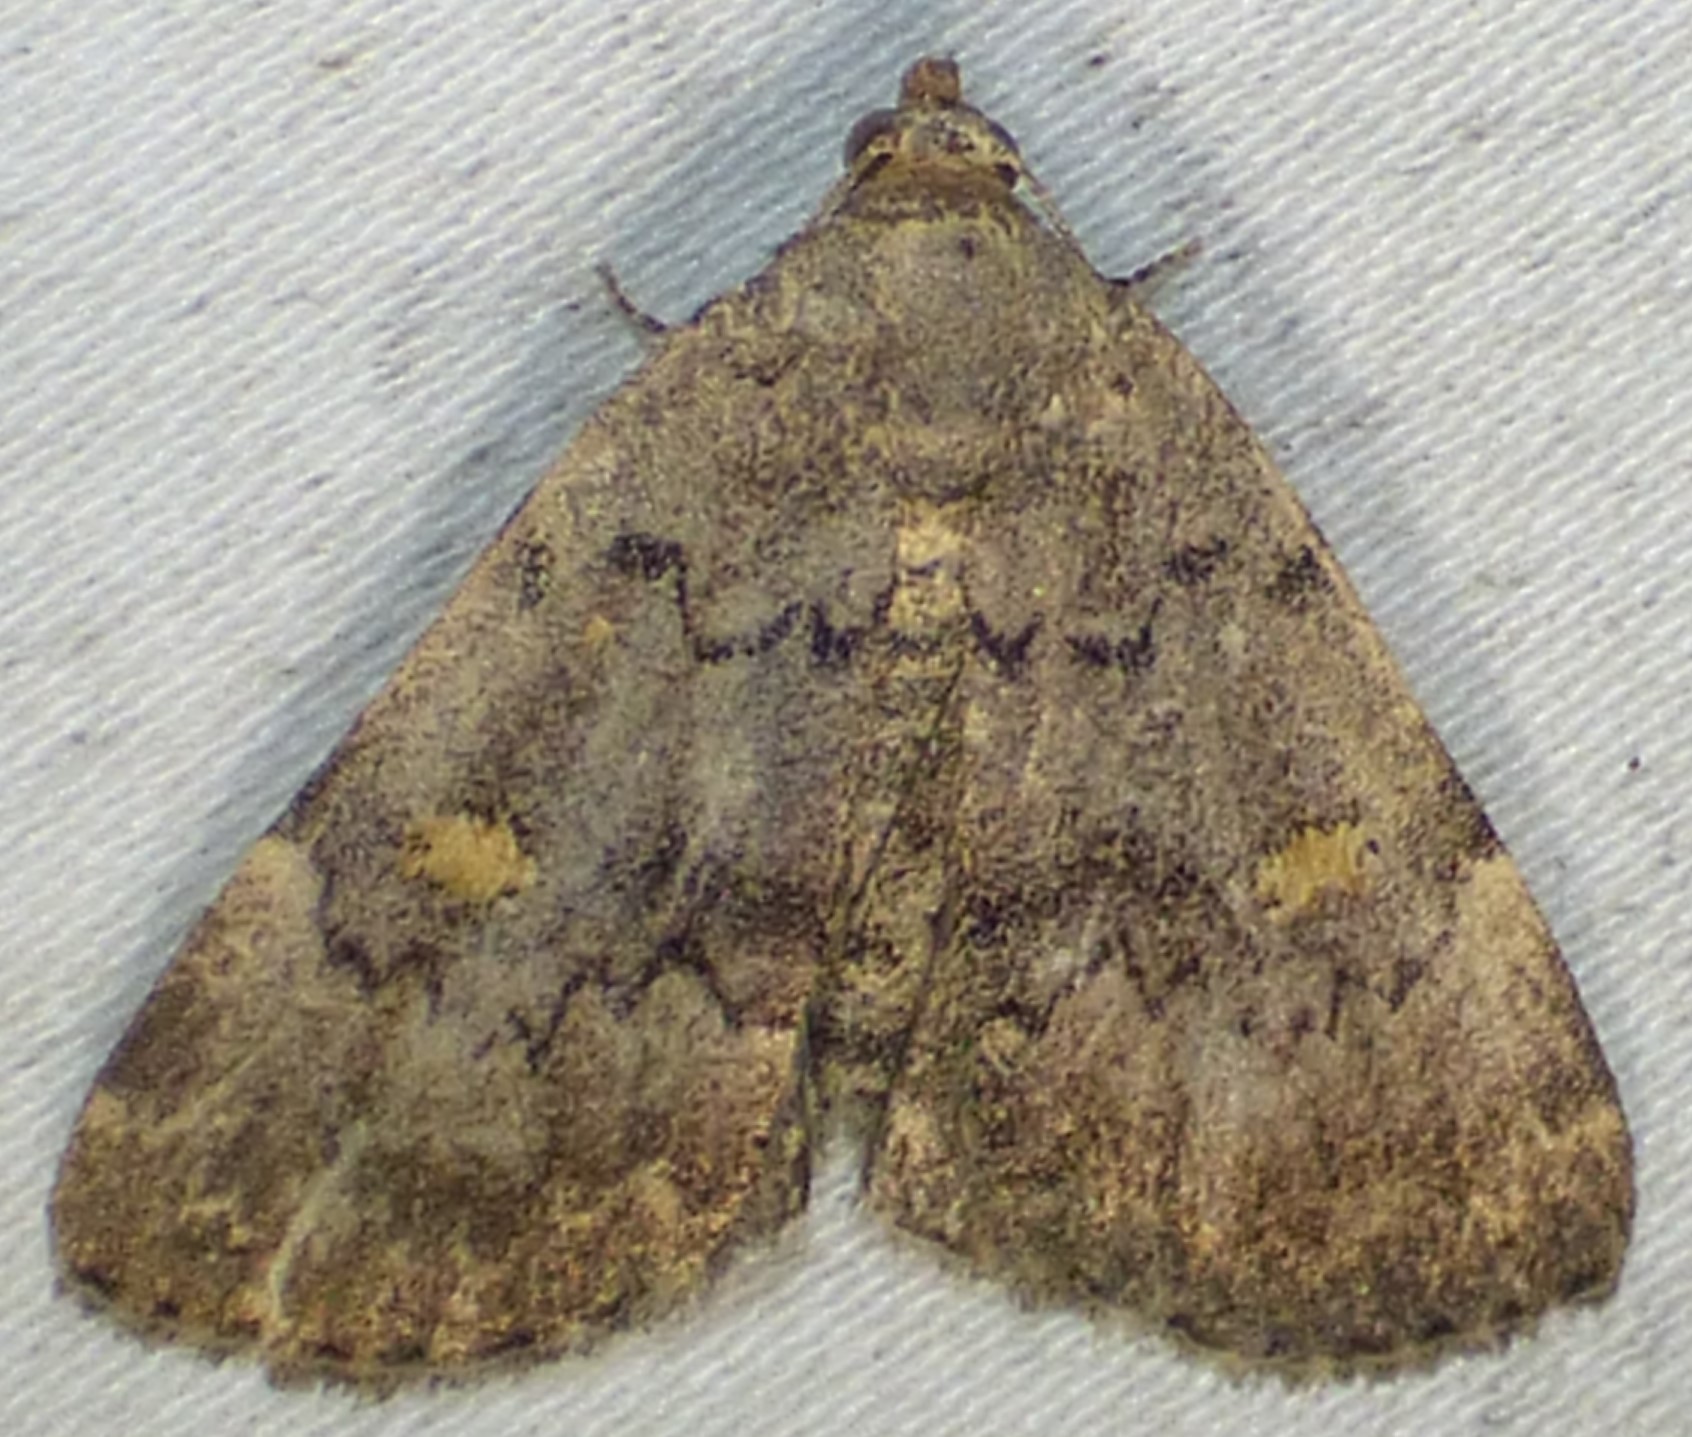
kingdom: Animalia
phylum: Arthropoda
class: Insecta
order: Lepidoptera
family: Erebidae
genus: Idia
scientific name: Idia aemula
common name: Common idia moth
